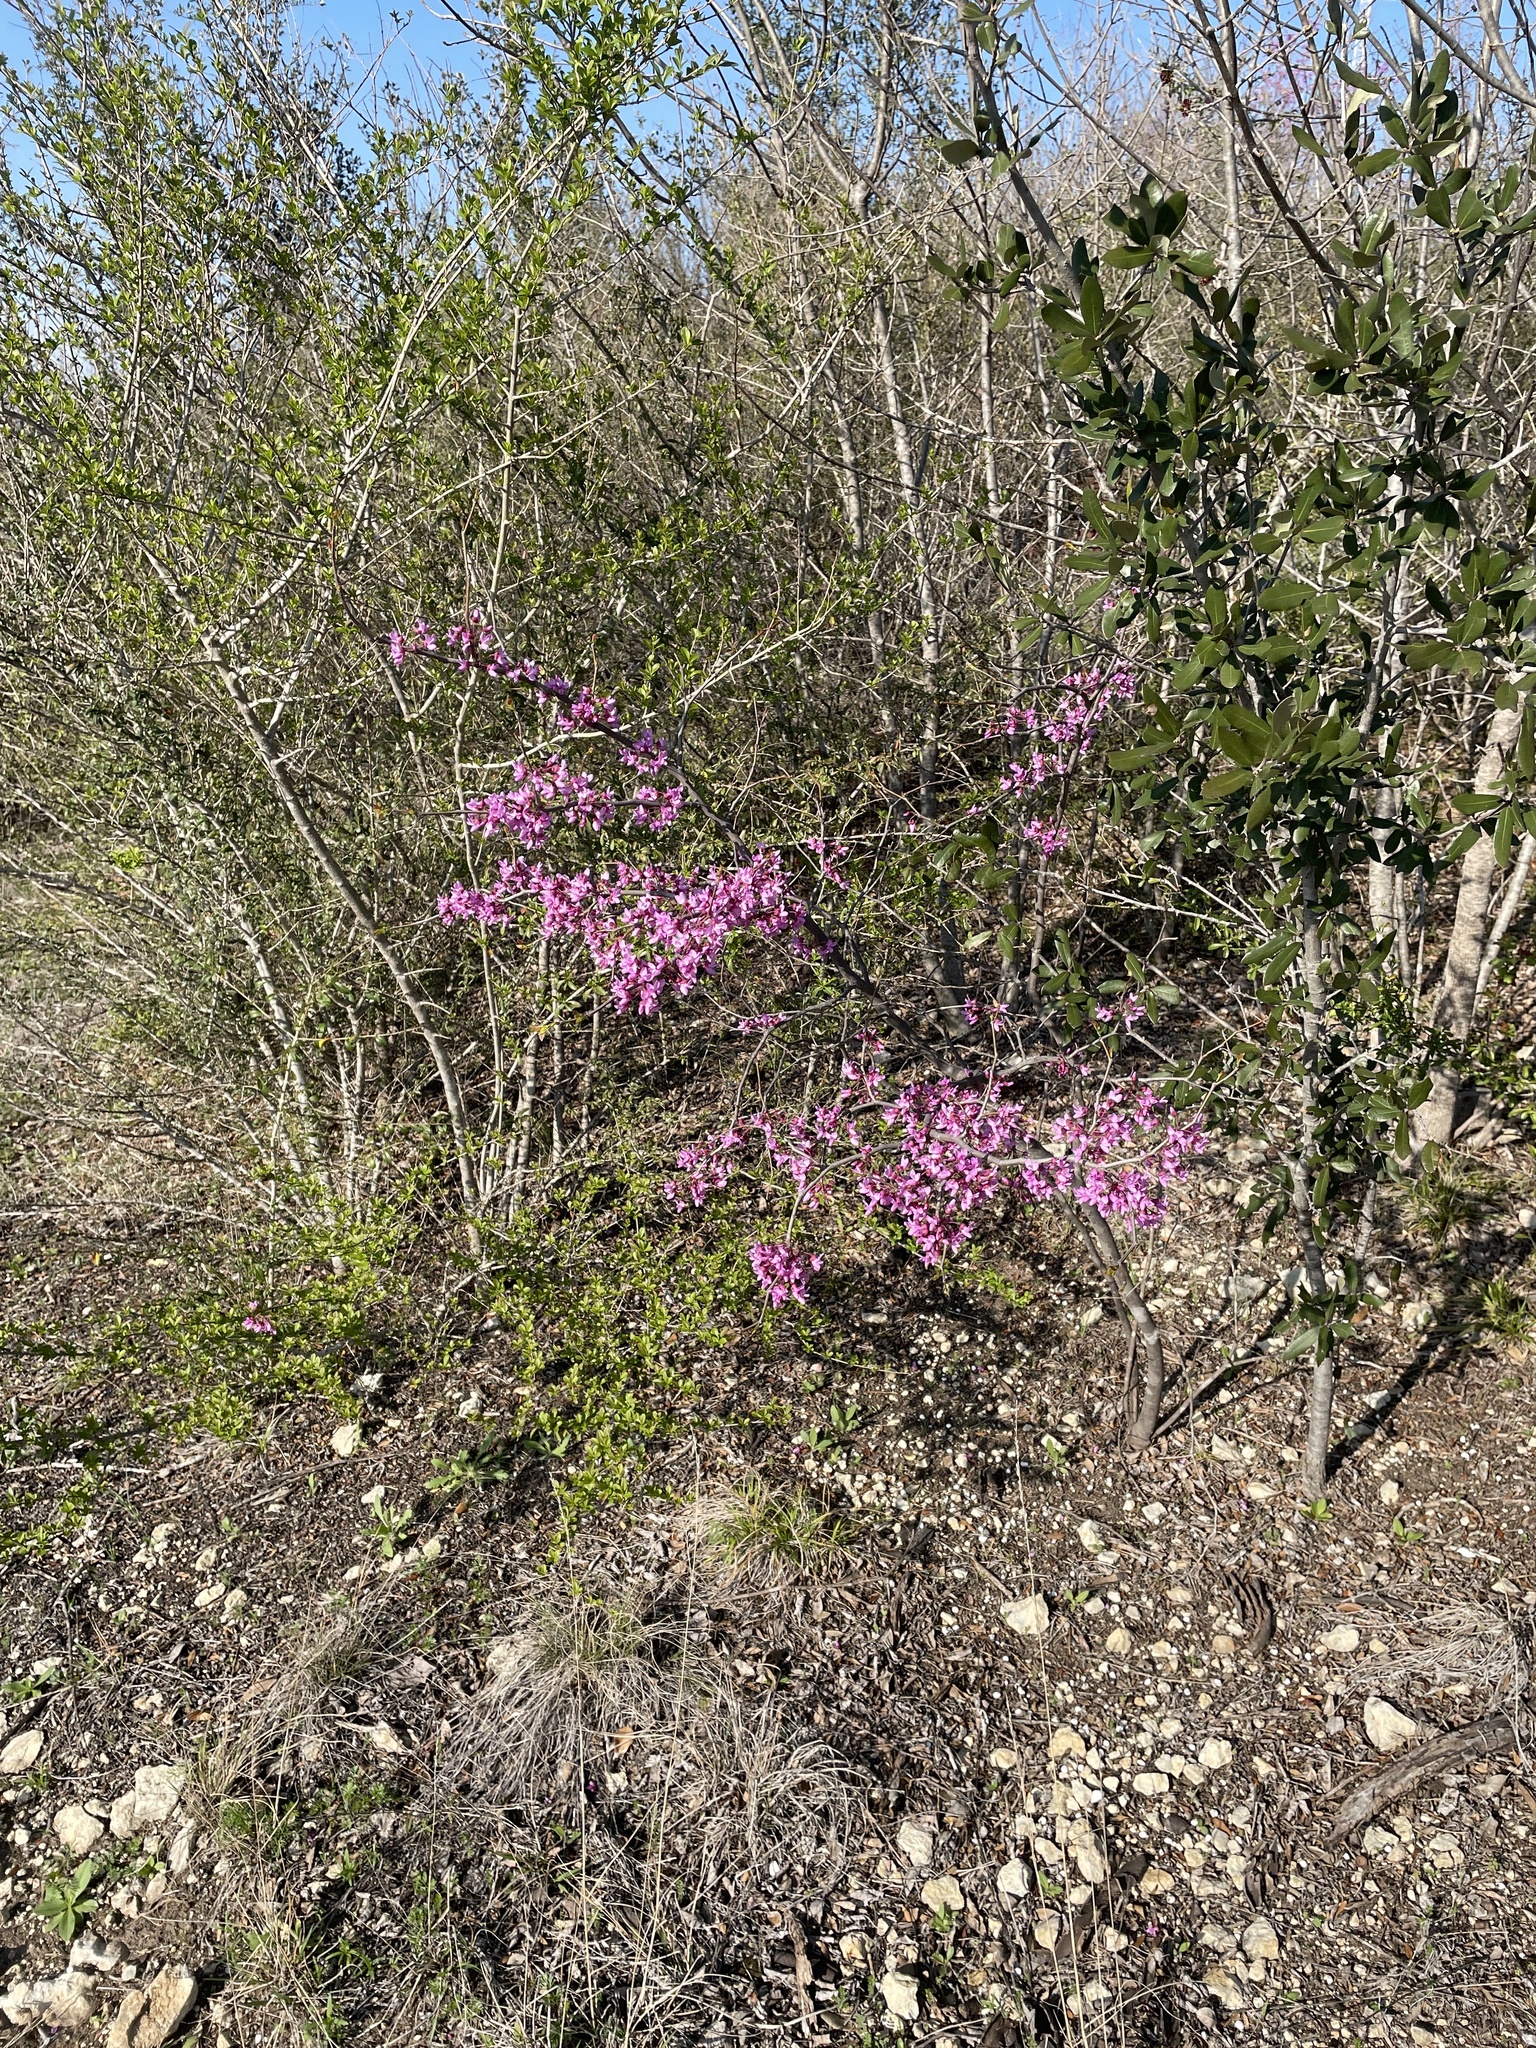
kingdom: Plantae
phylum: Tracheophyta
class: Magnoliopsida
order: Fabales
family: Fabaceae
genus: Cercis
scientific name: Cercis canadensis
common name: Eastern redbud
